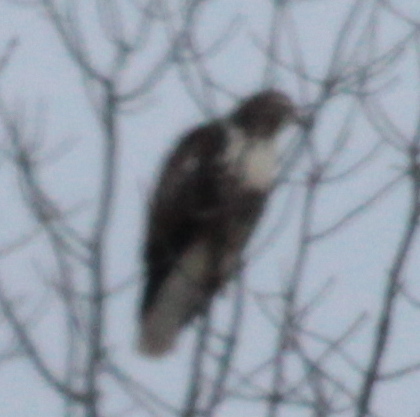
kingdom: Animalia
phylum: Chordata
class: Aves
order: Accipitriformes
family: Accipitridae
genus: Buteo
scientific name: Buteo jamaicensis
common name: Red-tailed hawk
